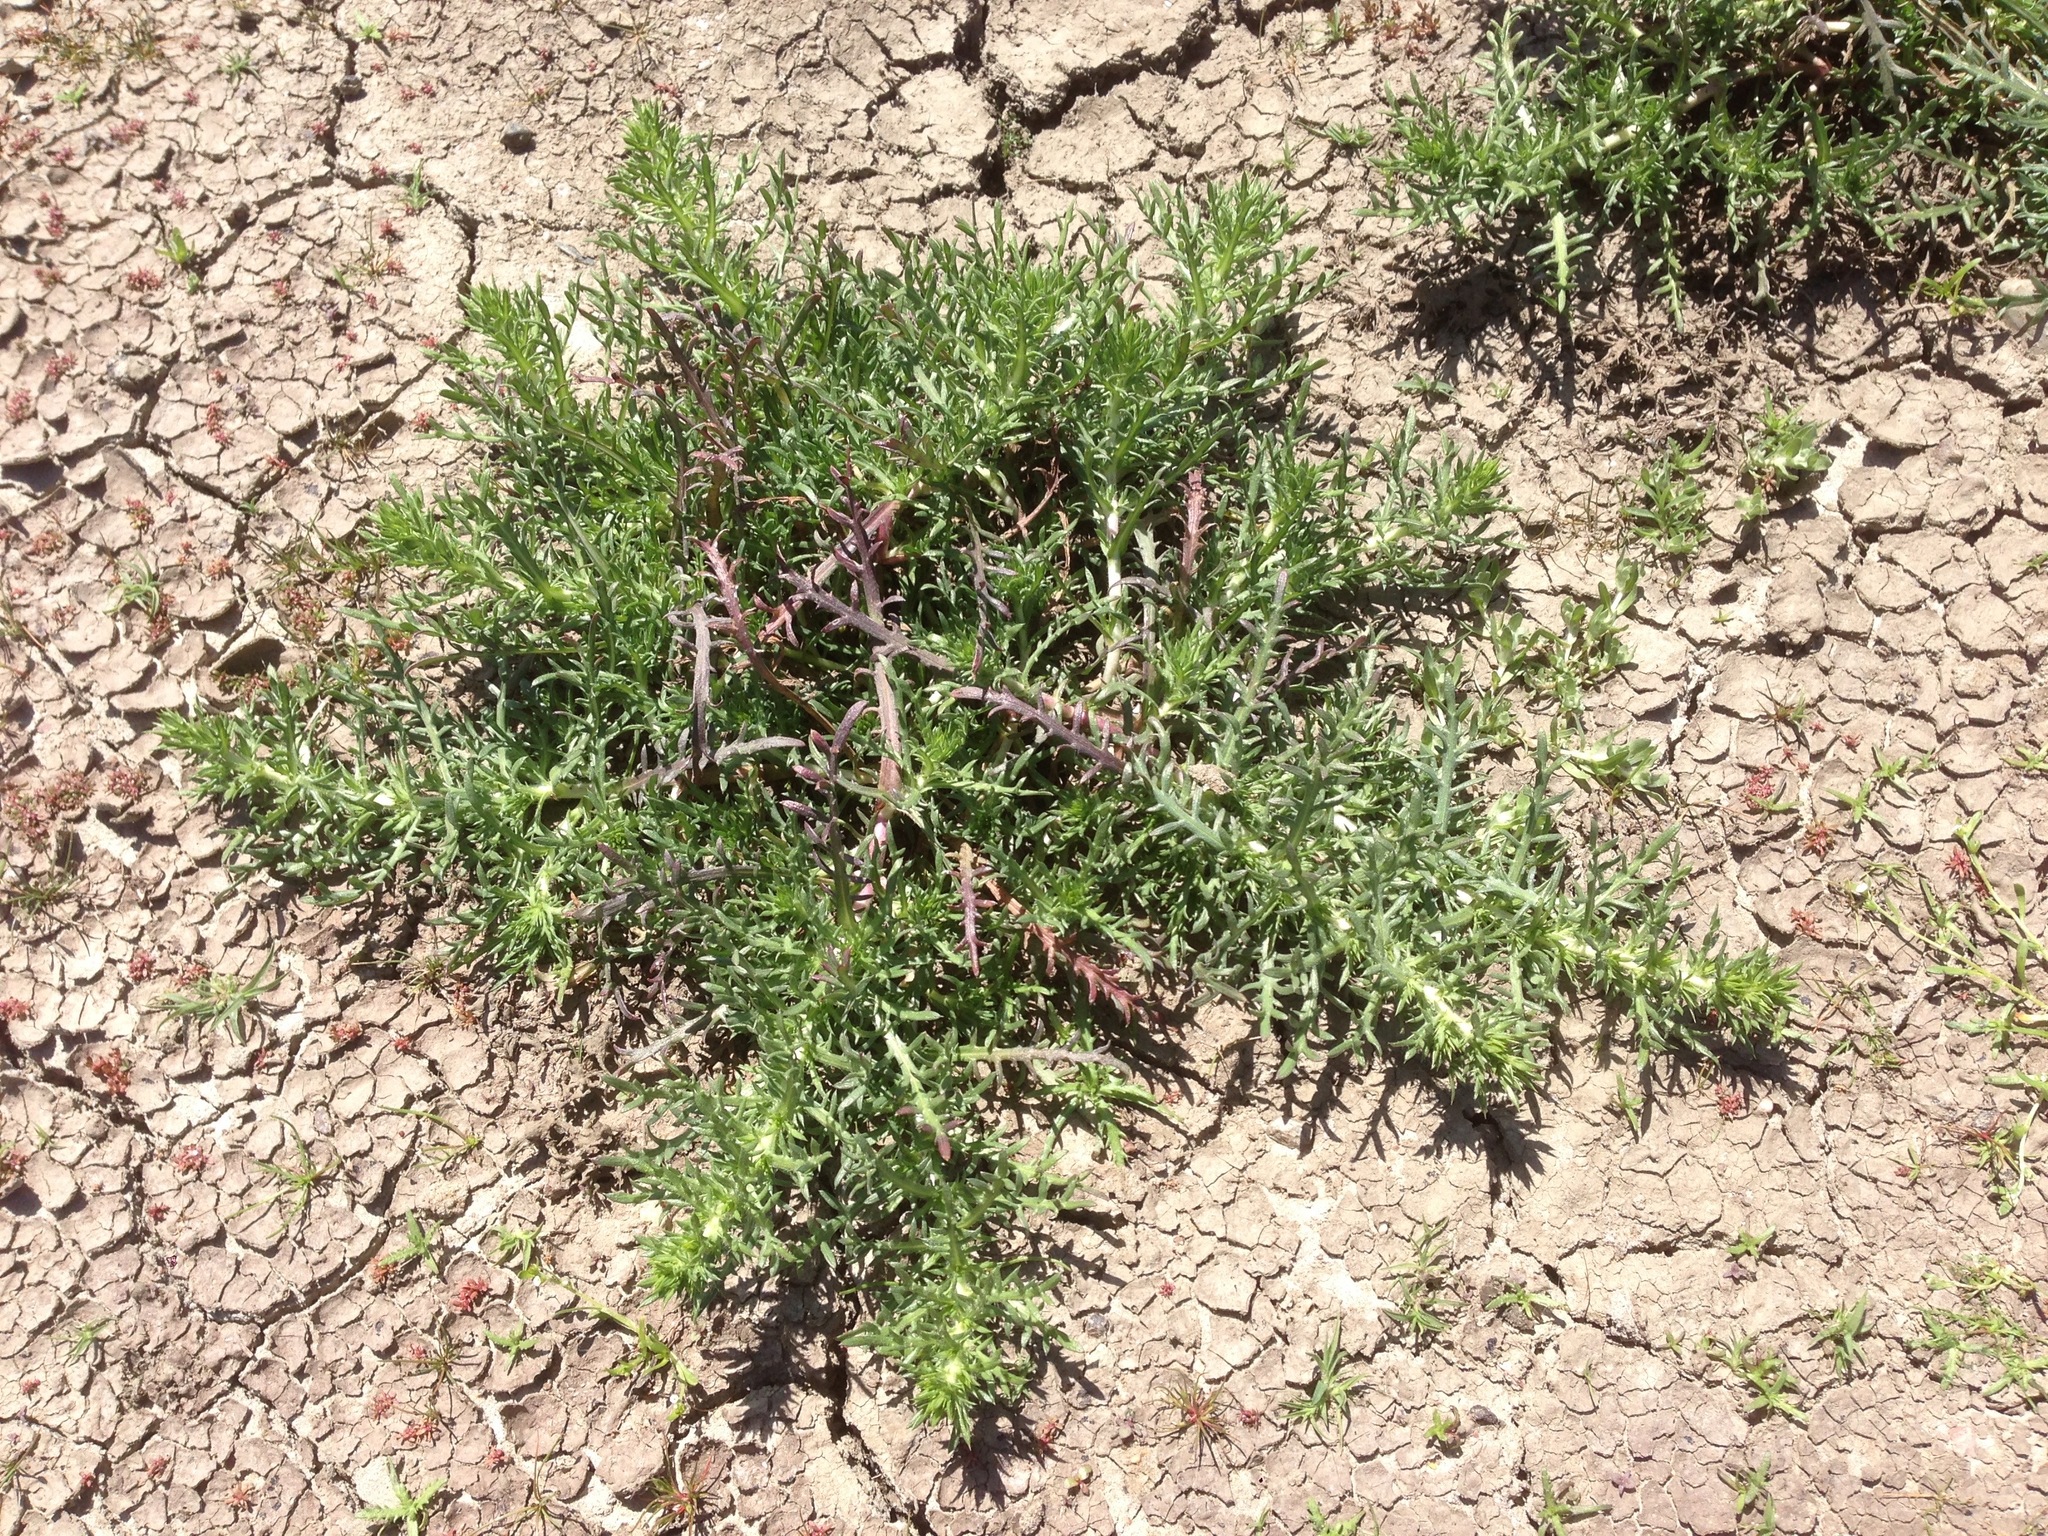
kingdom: Plantae
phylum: Tracheophyta
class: Magnoliopsida
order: Asterales
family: Asteraceae
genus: Centromadia
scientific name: Centromadia perennis
